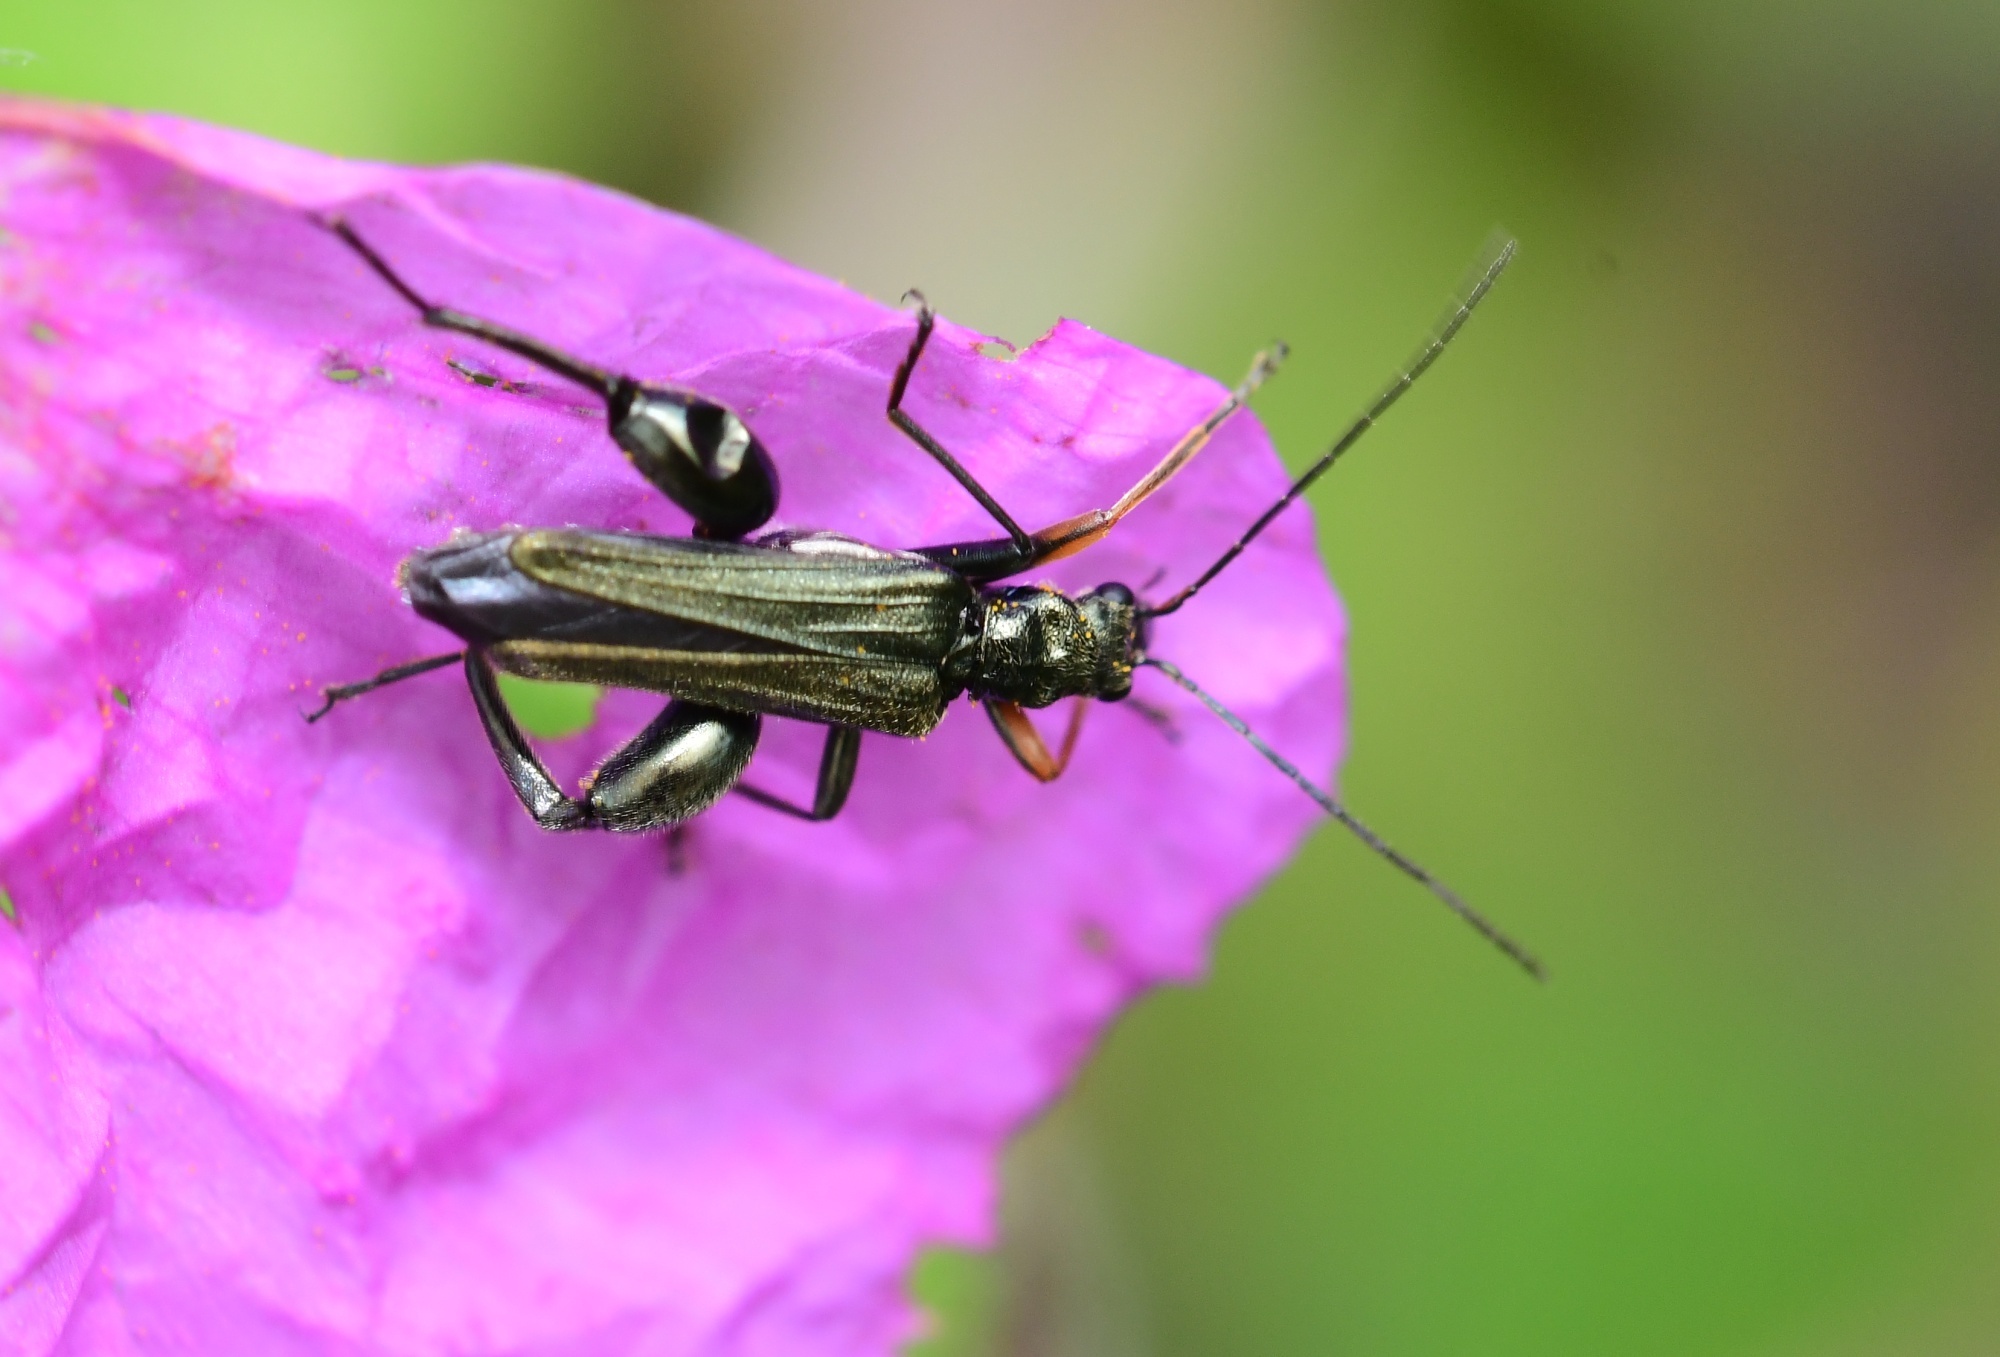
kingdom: Animalia
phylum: Arthropoda
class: Insecta
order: Coleoptera
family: Oedemeridae
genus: Oedemera
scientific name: Oedemera flavipes
